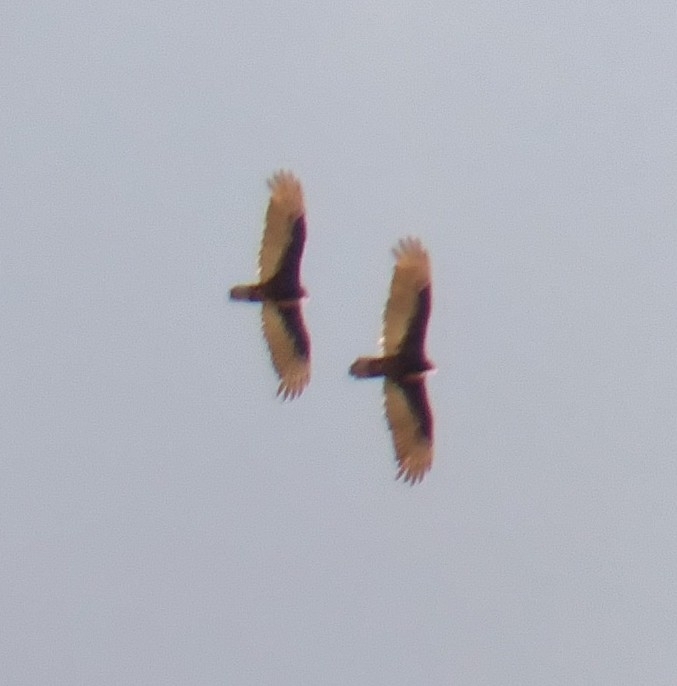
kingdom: Animalia
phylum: Chordata
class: Aves
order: Accipitriformes
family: Cathartidae
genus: Cathartes
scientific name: Cathartes aura
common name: Turkey vulture
